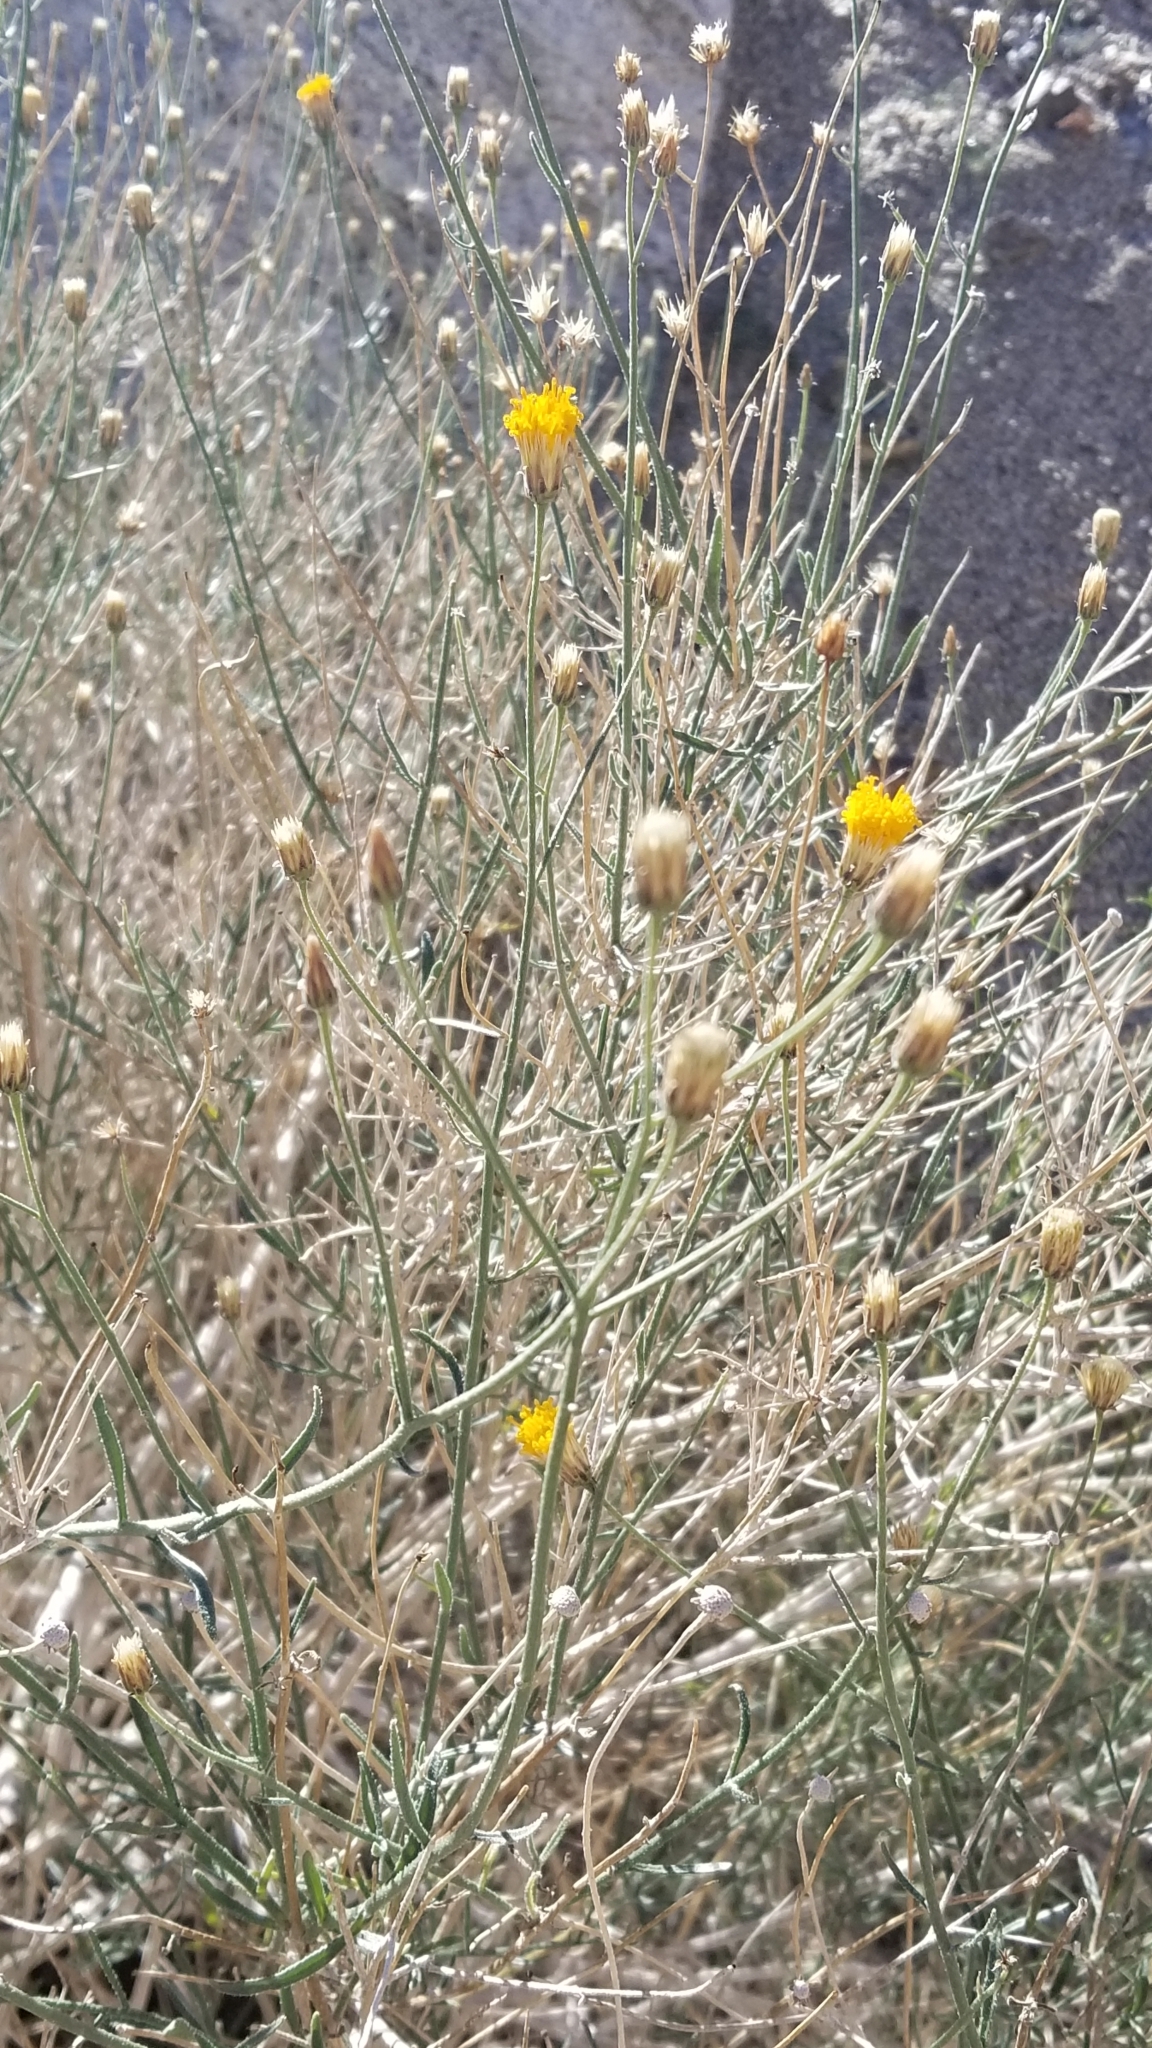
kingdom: Plantae
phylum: Tracheophyta
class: Magnoliopsida
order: Asterales
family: Asteraceae
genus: Bebbia
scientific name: Bebbia juncea
